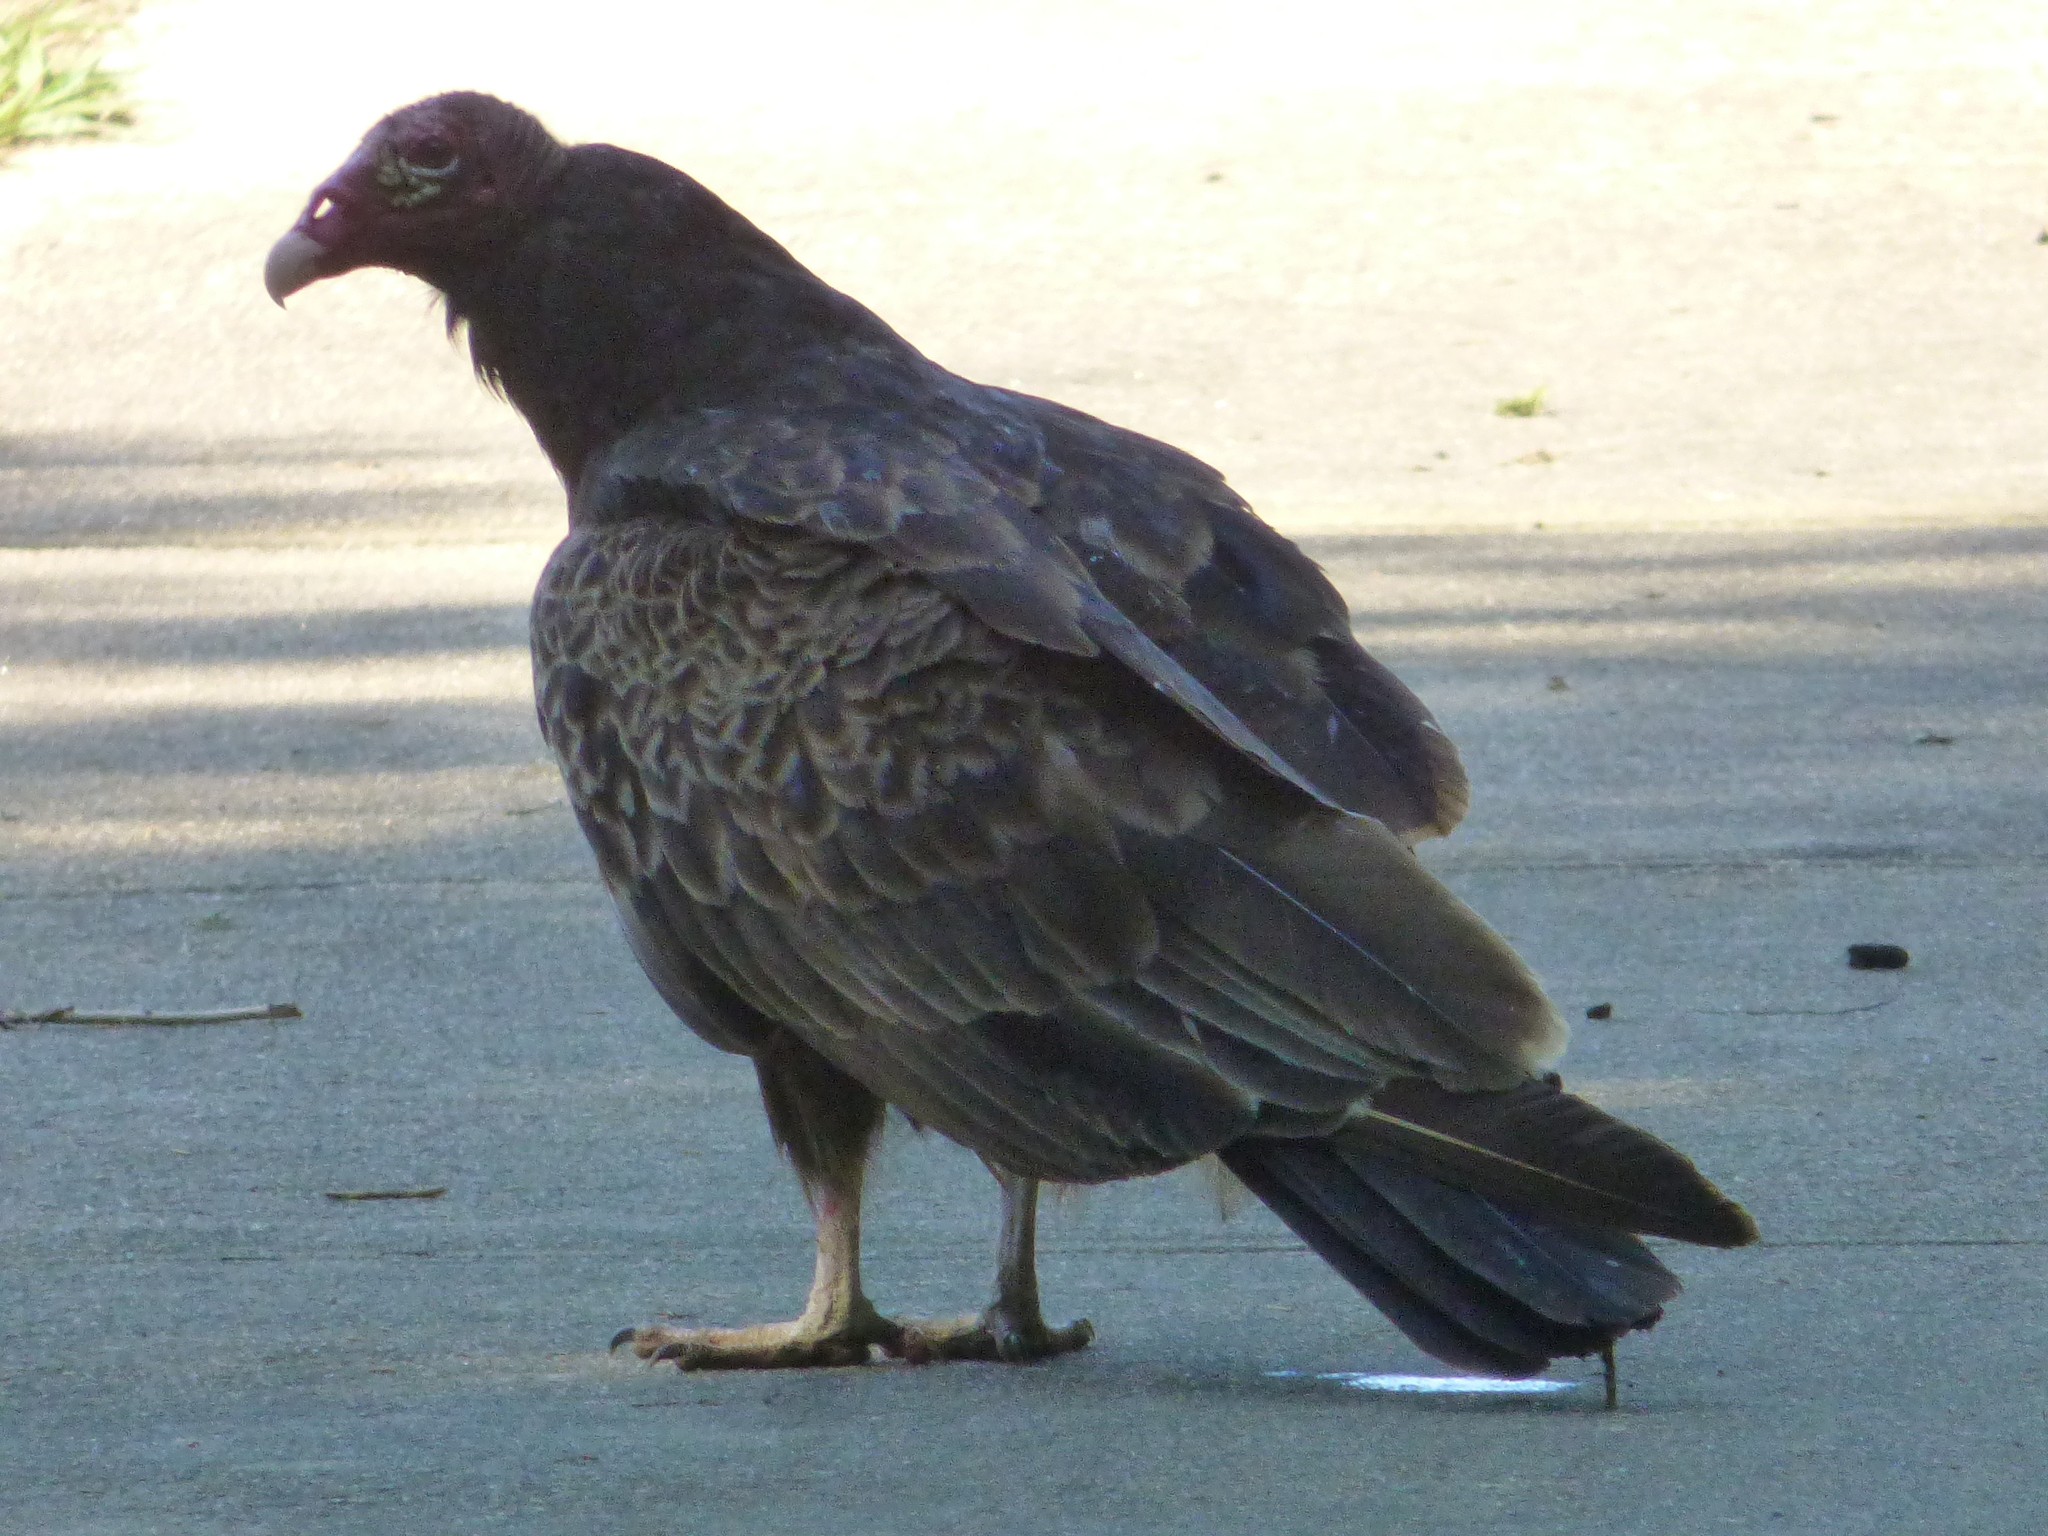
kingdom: Animalia
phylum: Chordata
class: Aves
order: Accipitriformes
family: Cathartidae
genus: Cathartes
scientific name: Cathartes aura
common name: Turkey vulture
